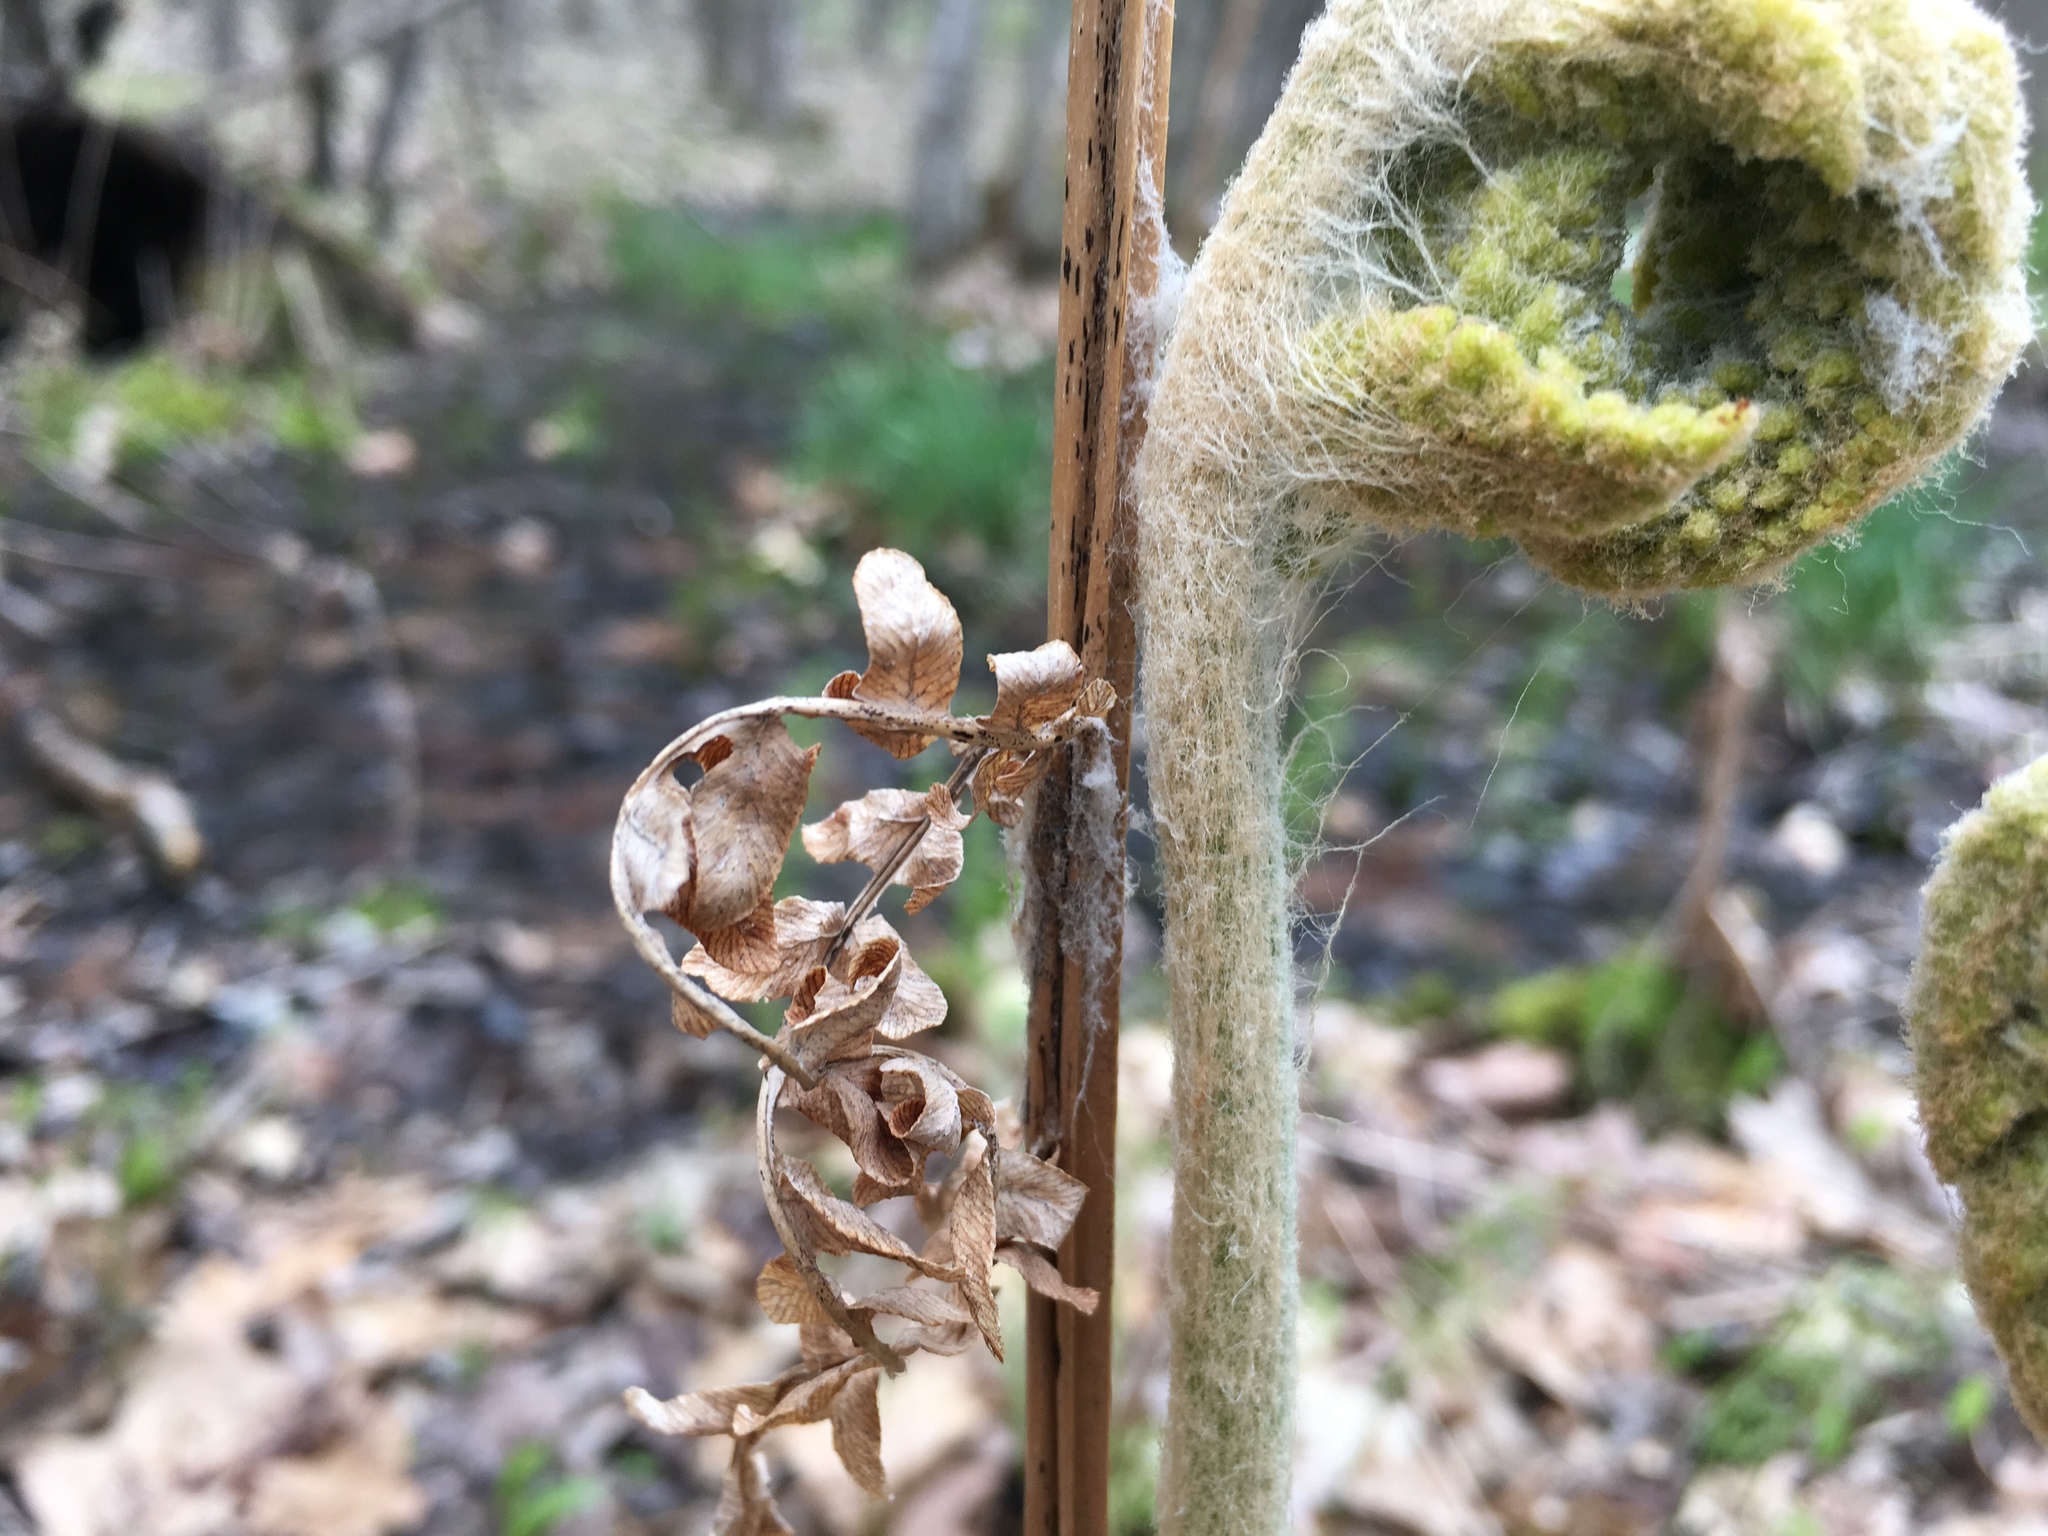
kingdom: Plantae
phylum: Tracheophyta
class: Polypodiopsida
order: Osmundales
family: Osmundaceae
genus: Osmundastrum
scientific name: Osmundastrum cinnamomeum
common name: Cinnamon fern
